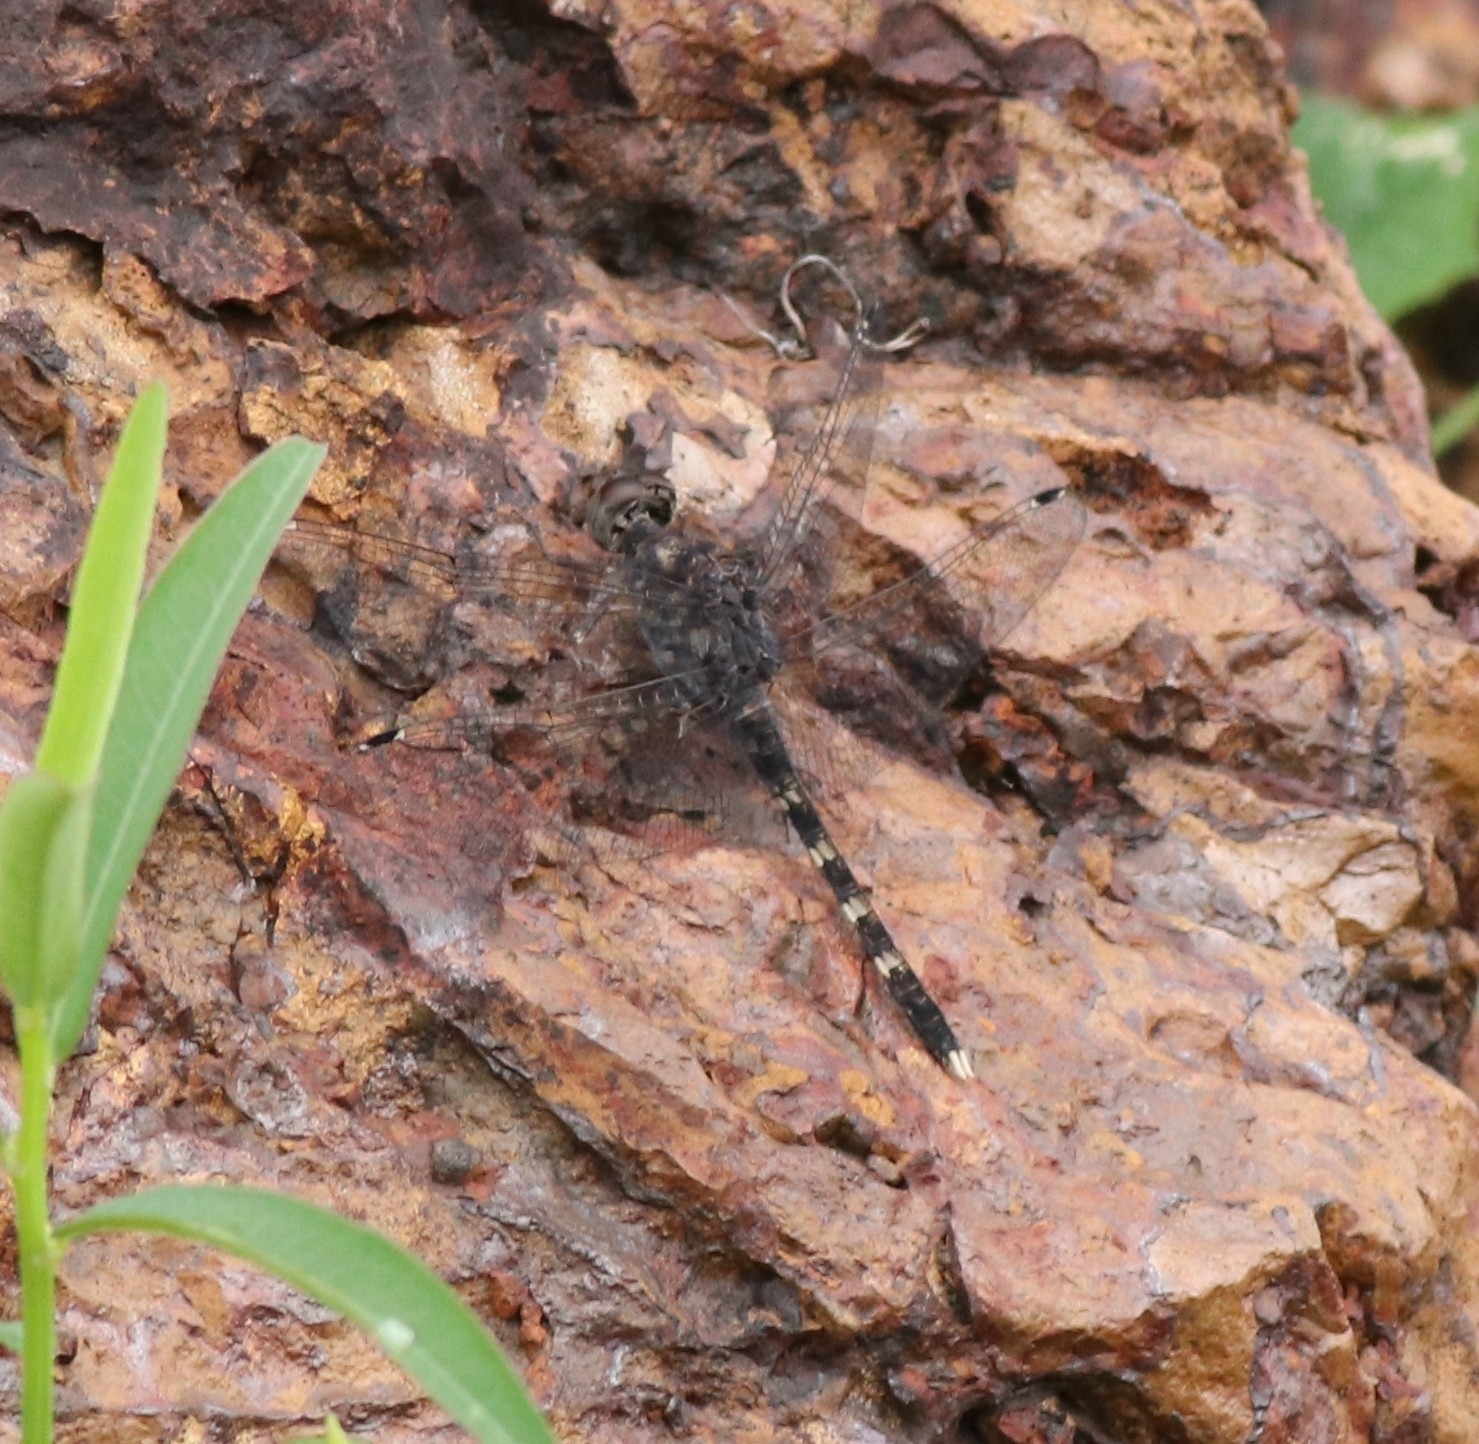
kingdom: Animalia
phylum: Arthropoda
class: Insecta
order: Odonata
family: Libellulidae
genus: Bradinopyga
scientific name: Bradinopyga geminata
